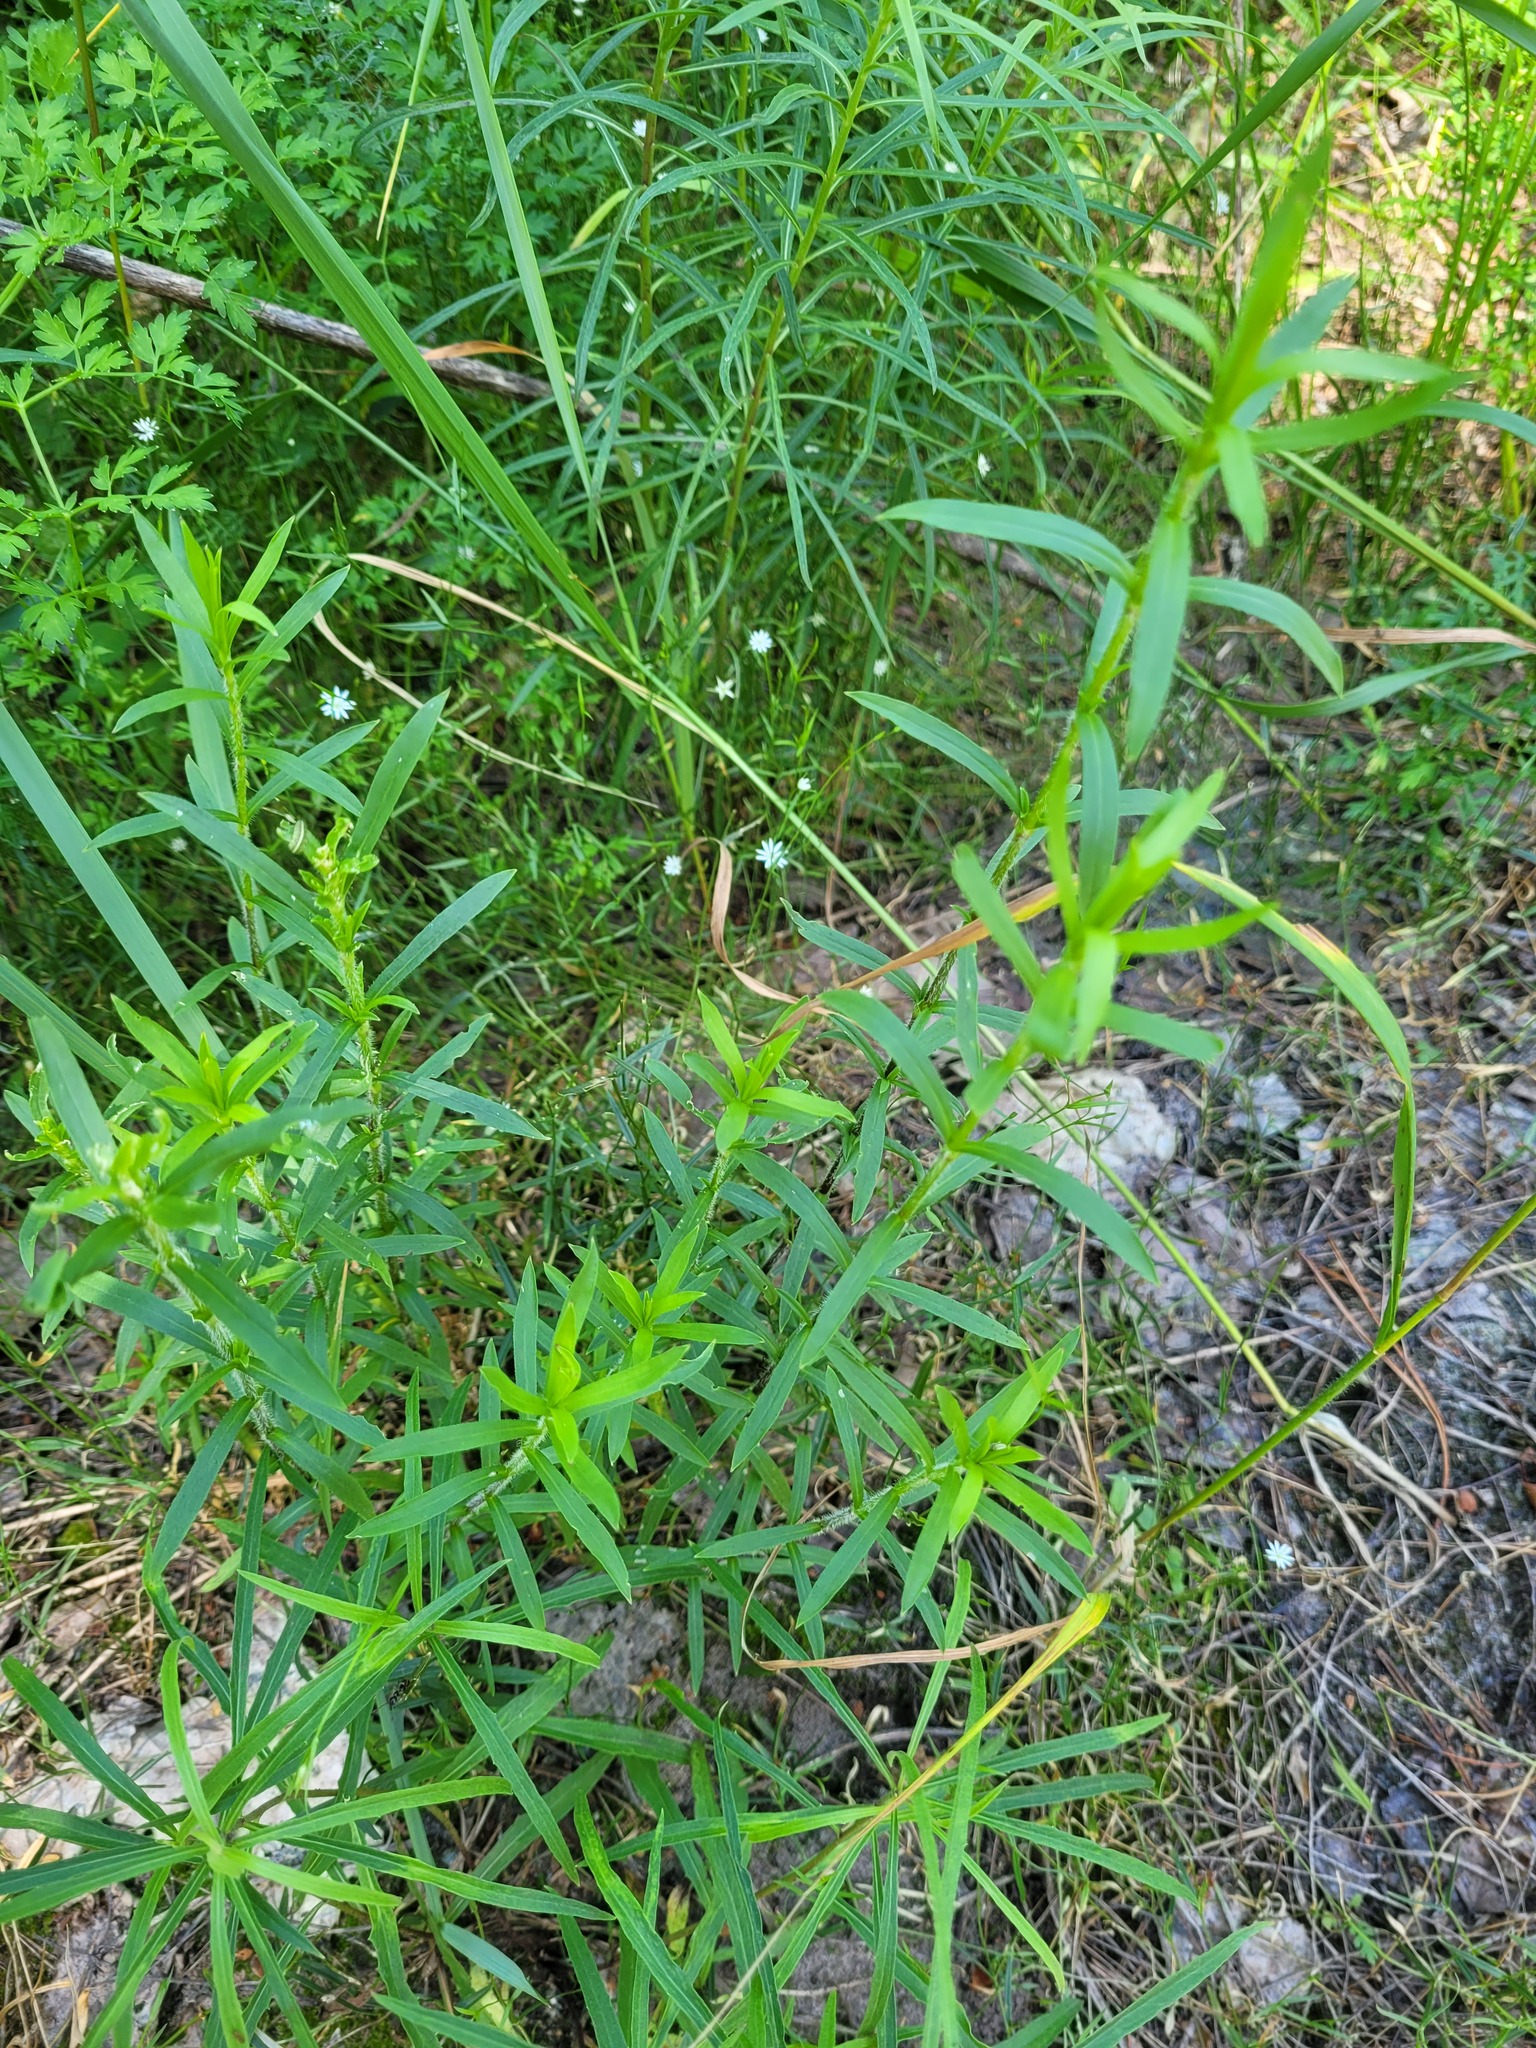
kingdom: Plantae
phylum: Tracheophyta
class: Magnoliopsida
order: Caryophyllales
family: Caryophyllaceae
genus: Silene
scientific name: Silene tatarica
